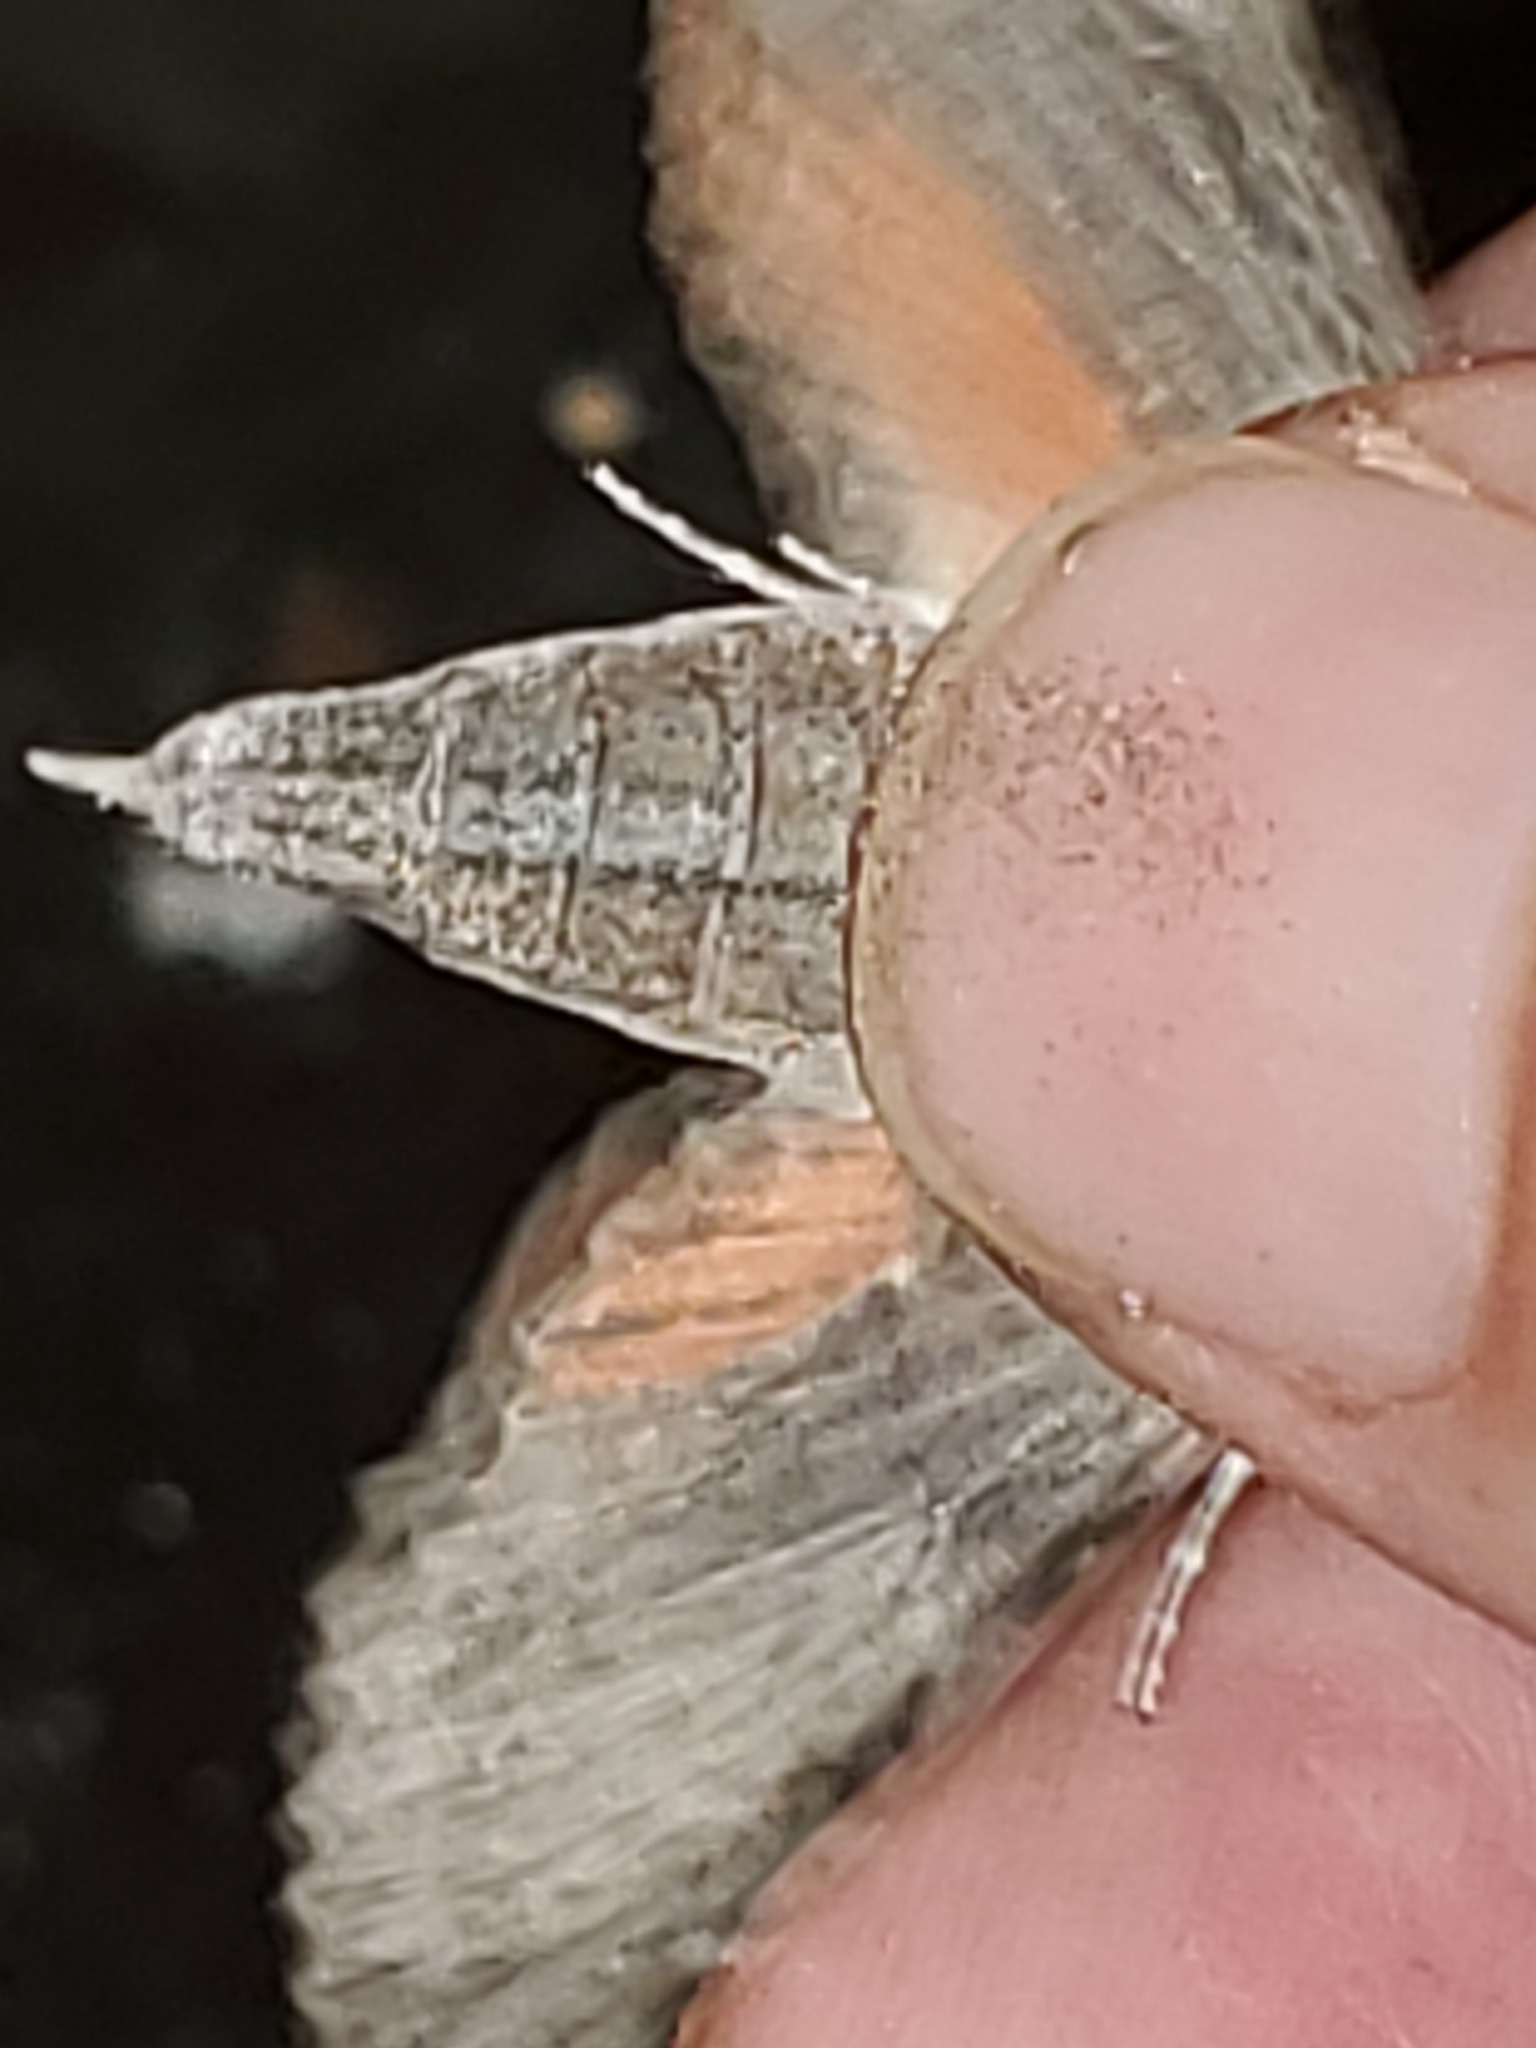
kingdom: Animalia
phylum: Arthropoda
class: Insecta
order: Lepidoptera
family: Sphingidae
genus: Erinnyis
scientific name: Erinnyis obscura
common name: Obscure sphinx
